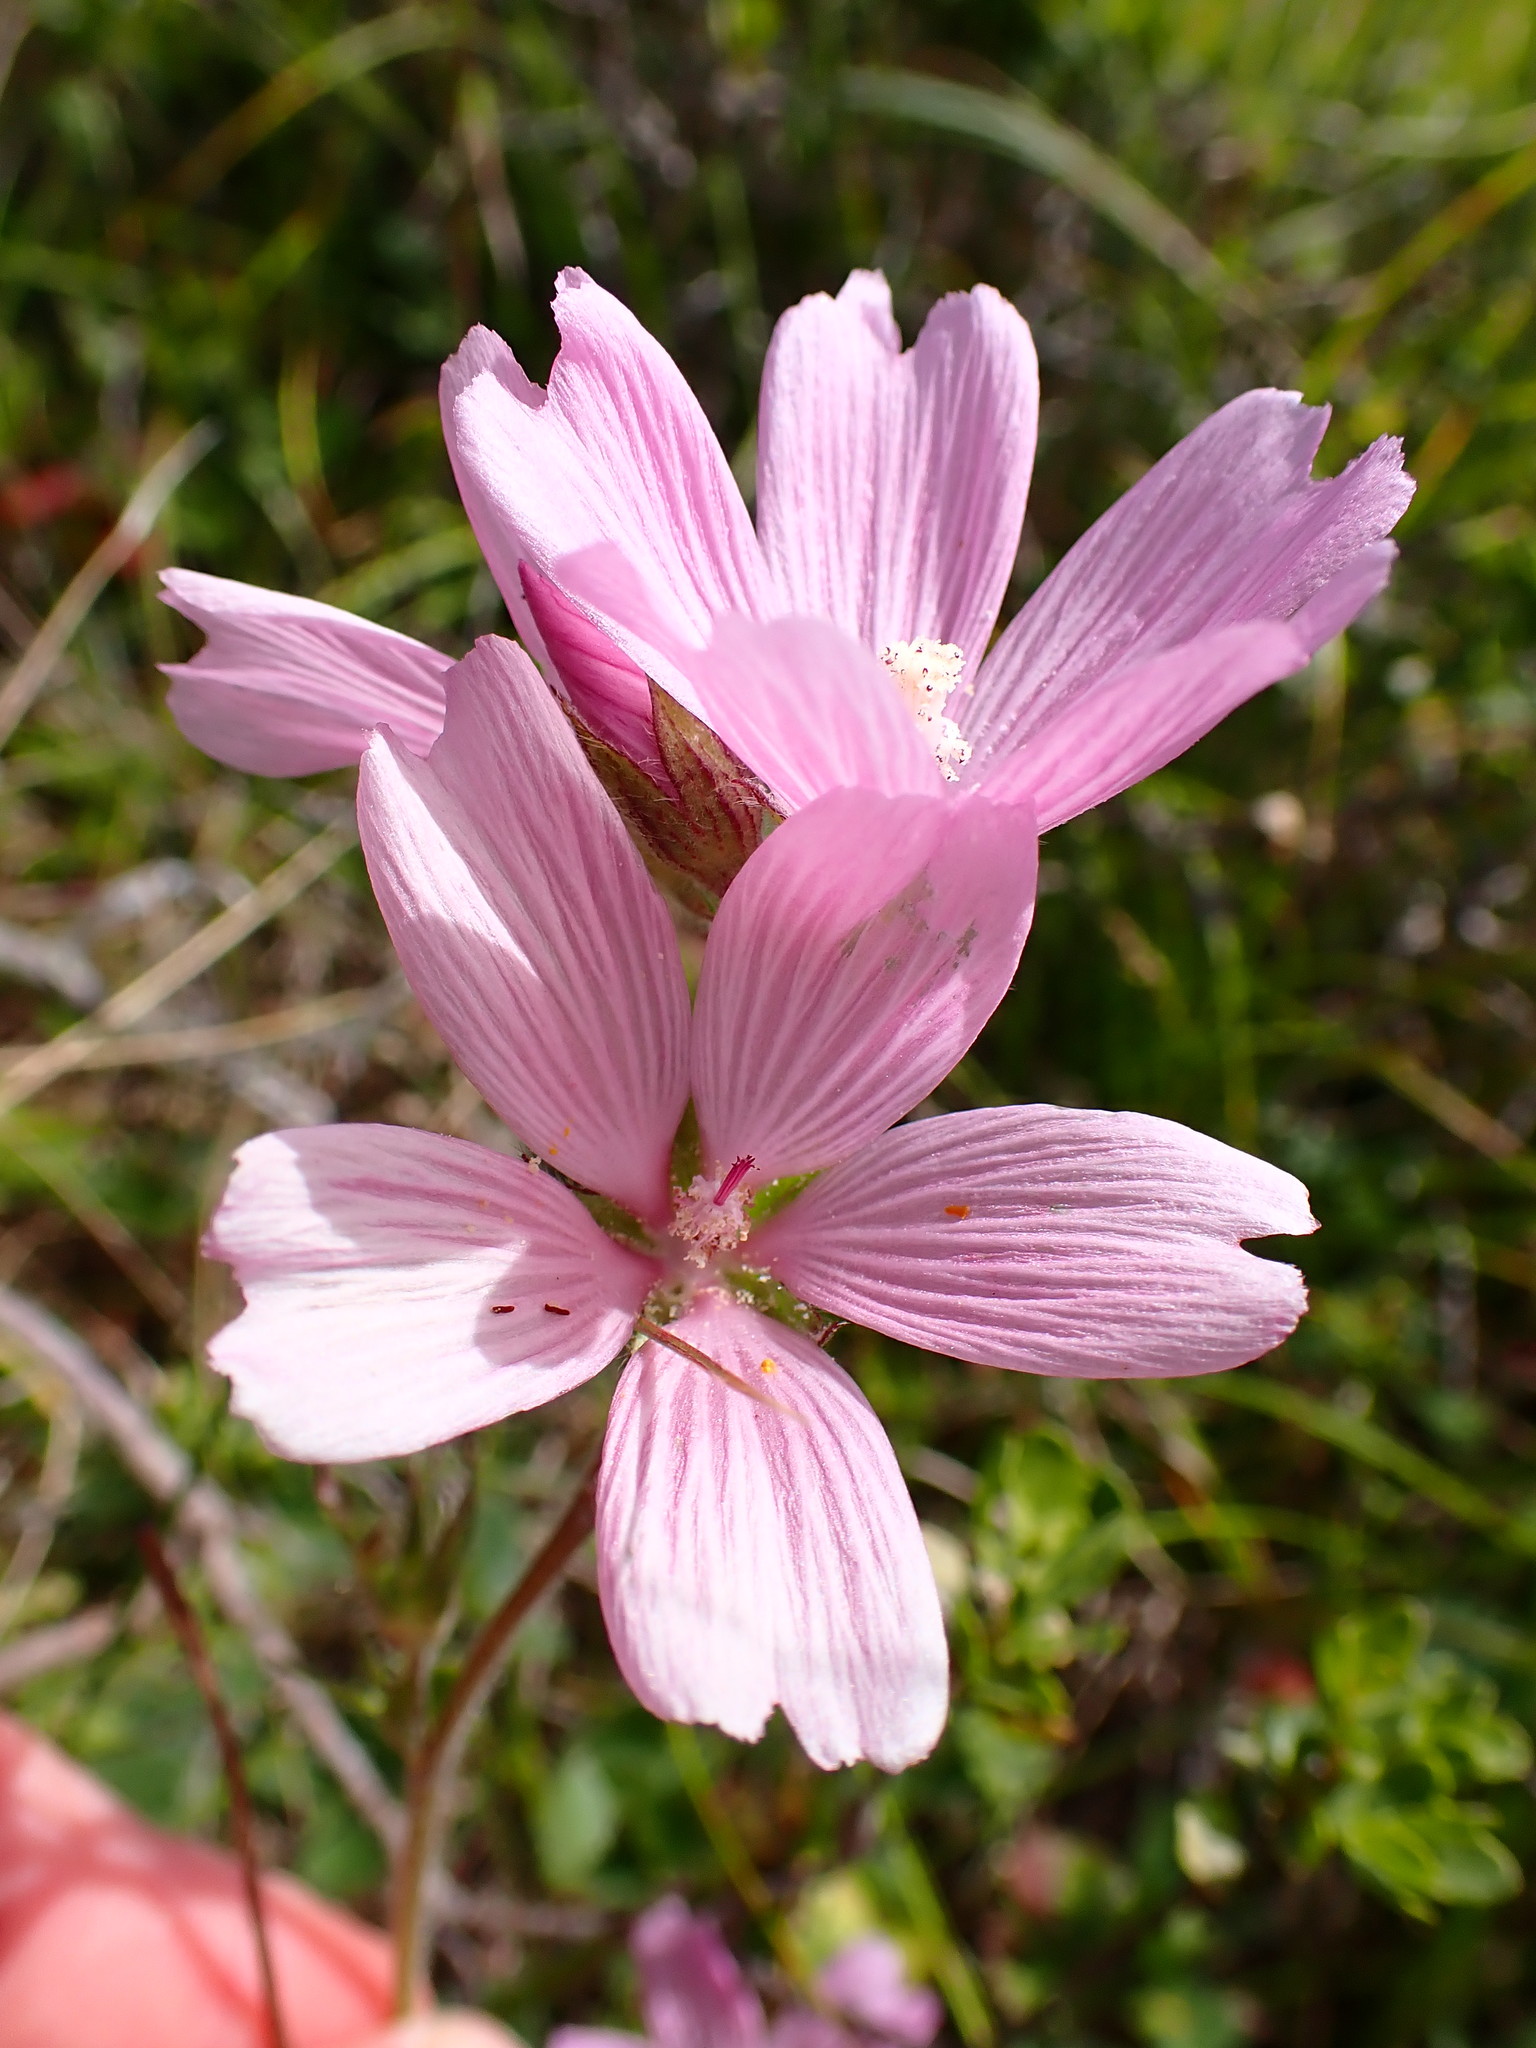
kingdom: Plantae
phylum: Tracheophyta
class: Magnoliopsida
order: Malvales
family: Malvaceae
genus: Sidalcea
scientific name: Sidalcea malviflora
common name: Greek mallow
